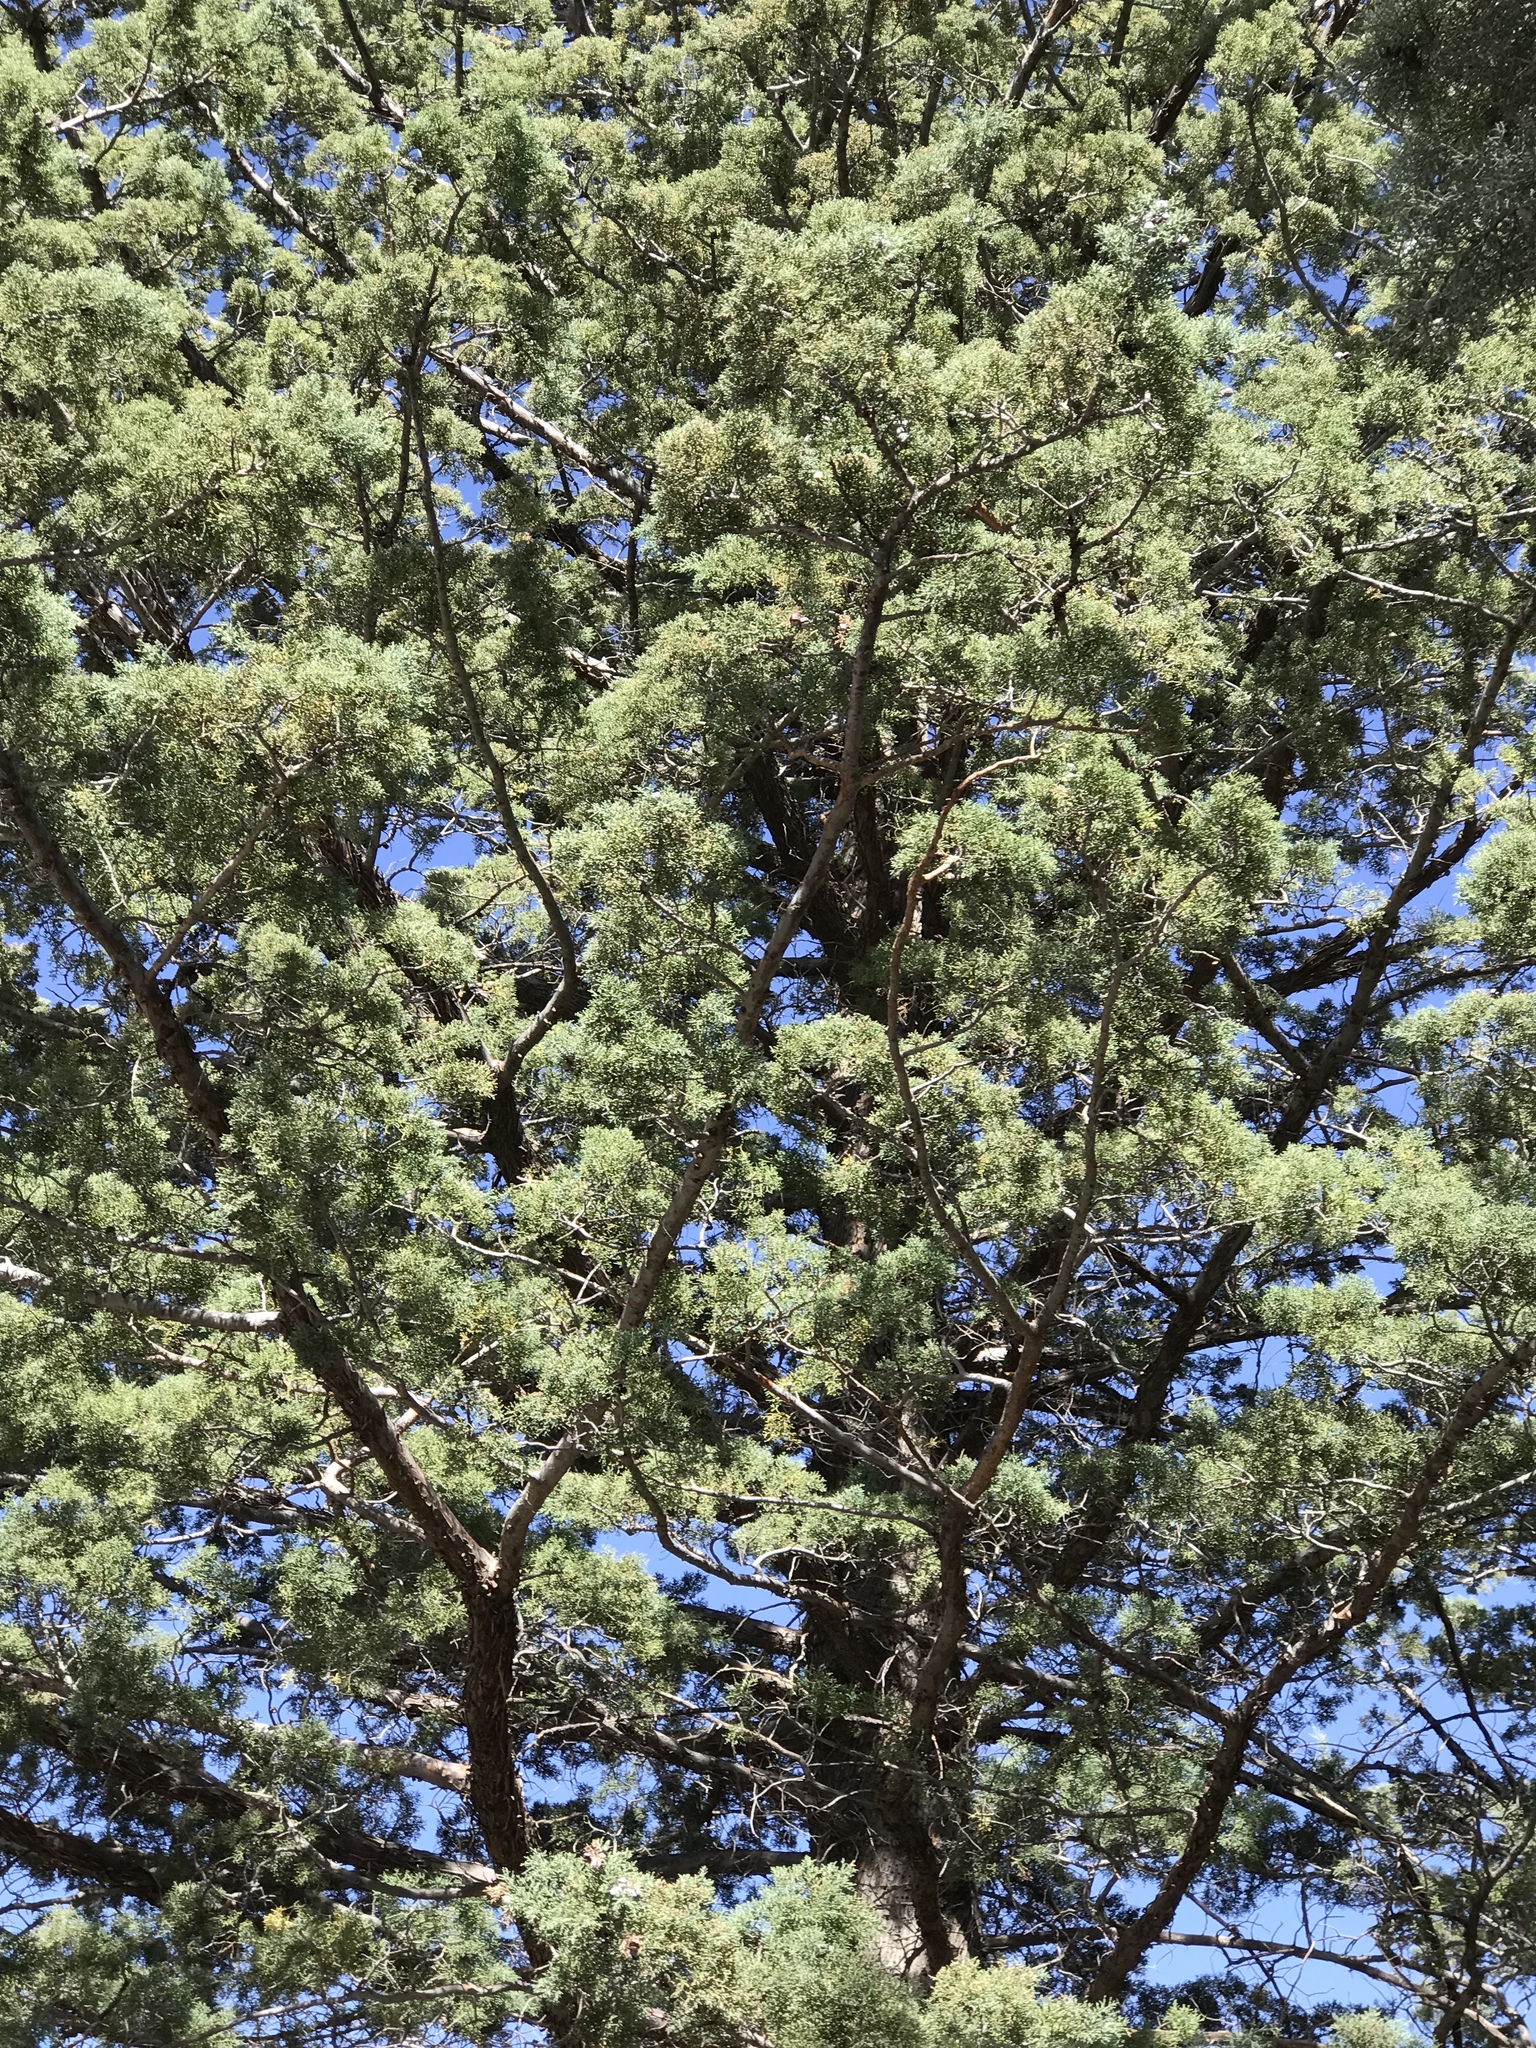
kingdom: Plantae
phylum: Tracheophyta
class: Pinopsida
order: Pinales
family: Cupressaceae
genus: Cupressus
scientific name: Cupressus arizonica
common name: Arizona cypress
